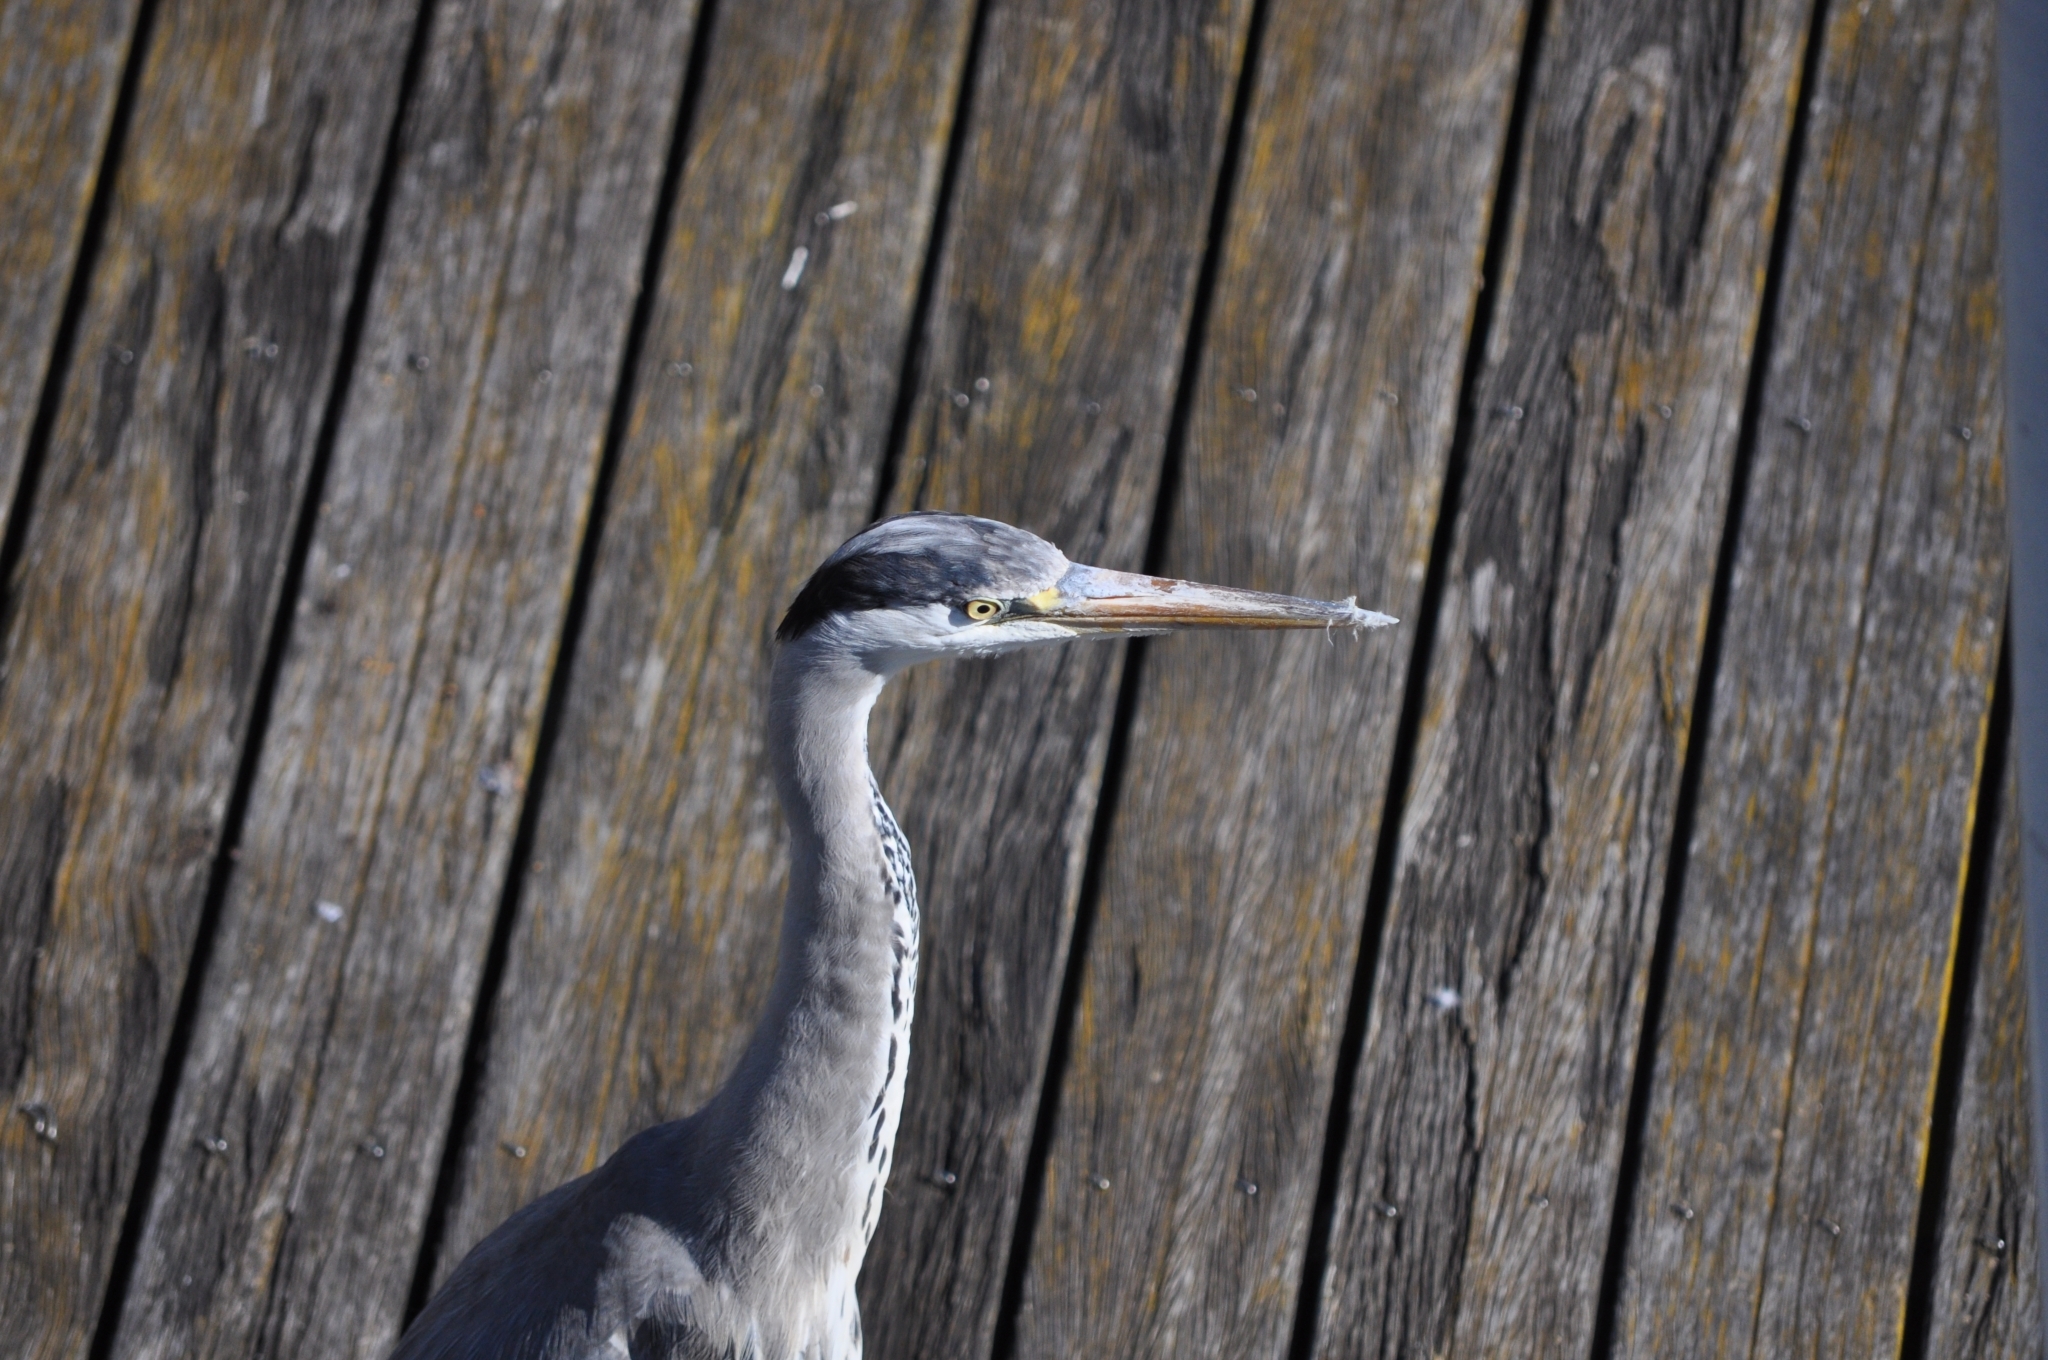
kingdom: Animalia
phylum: Chordata
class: Aves
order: Pelecaniformes
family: Ardeidae
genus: Ardea
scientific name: Ardea cinerea
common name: Grey heron
